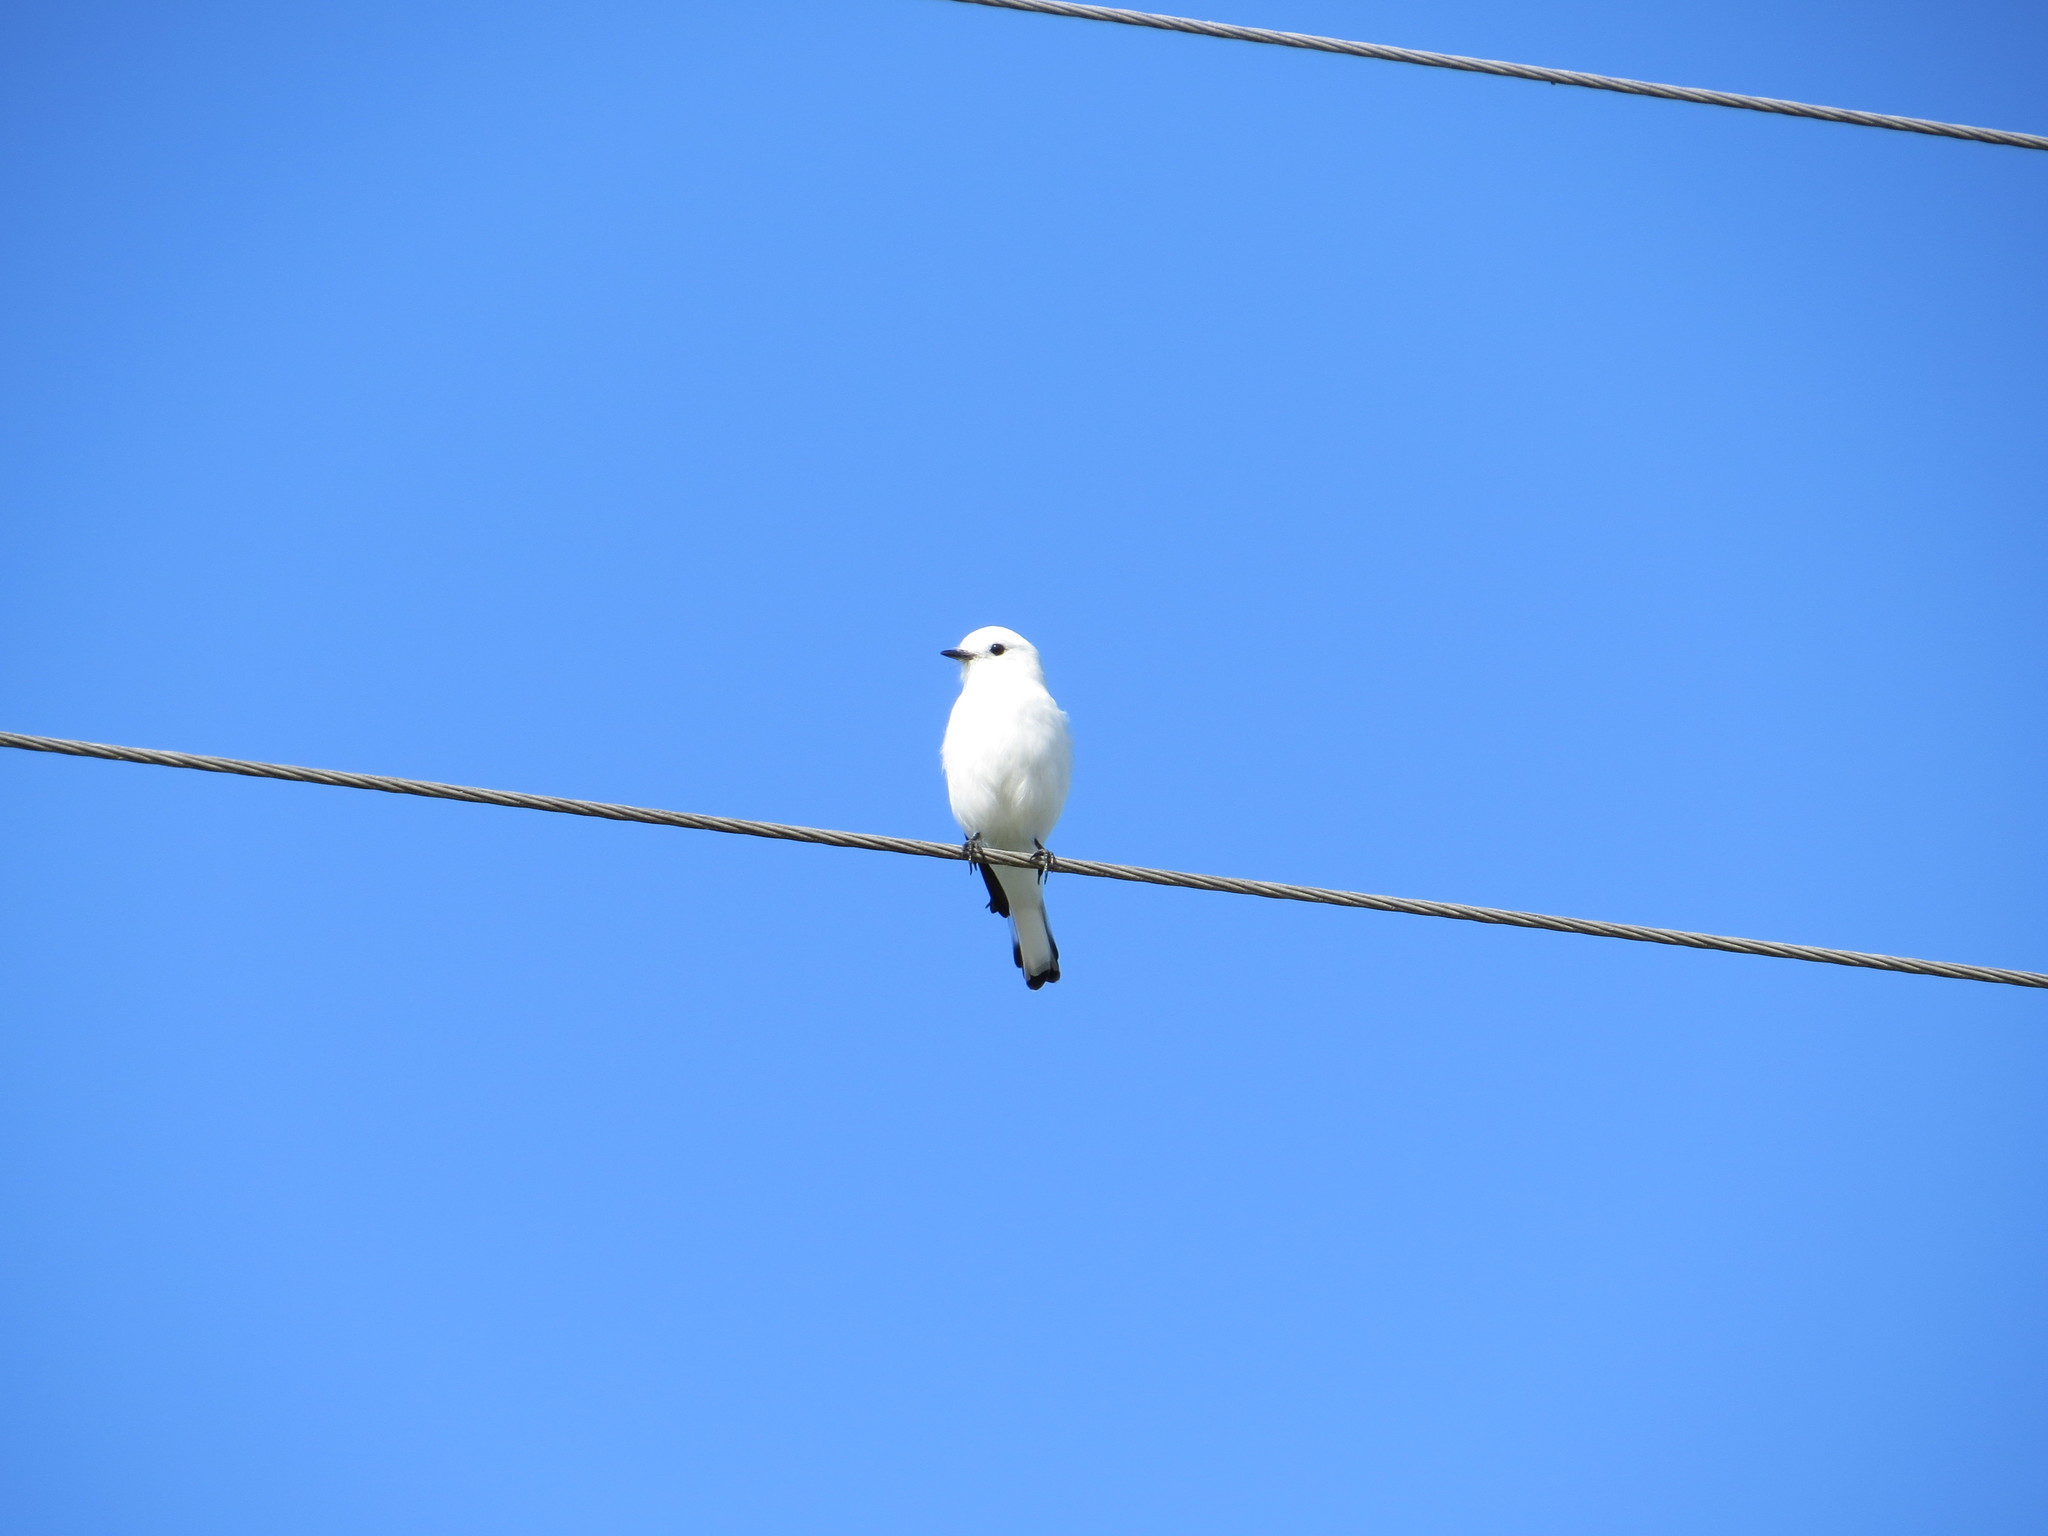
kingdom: Animalia
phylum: Chordata
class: Aves
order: Passeriformes
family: Tyrannidae
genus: Xolmis
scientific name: Xolmis irupero
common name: White monjita
